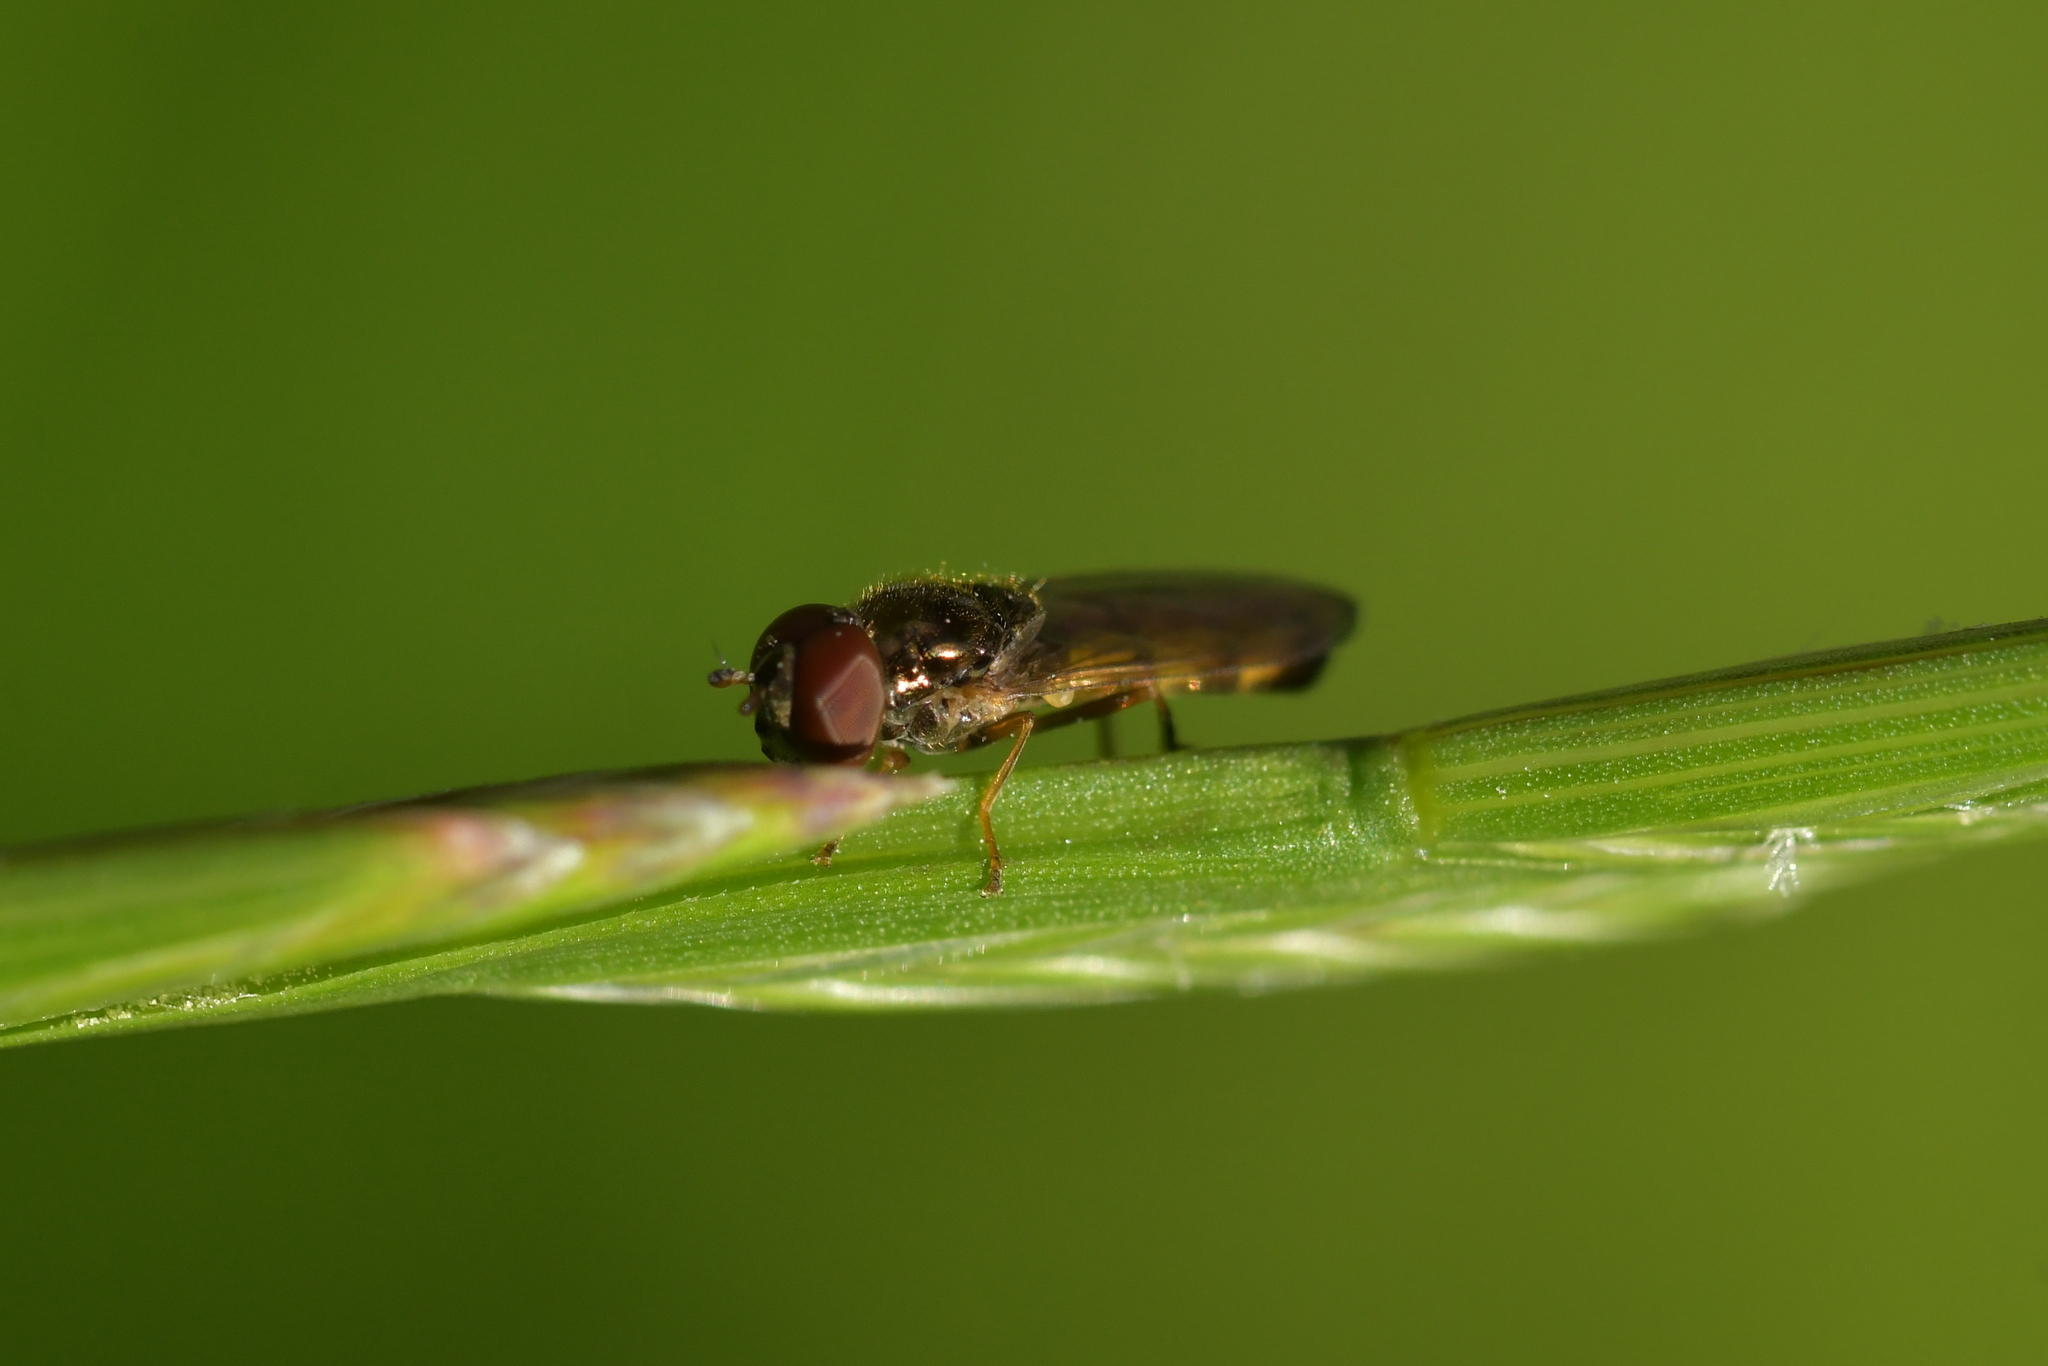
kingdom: Animalia
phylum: Arthropoda
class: Insecta
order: Diptera
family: Syrphidae
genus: Melanostoma
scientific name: Melanostoma fasciatum
